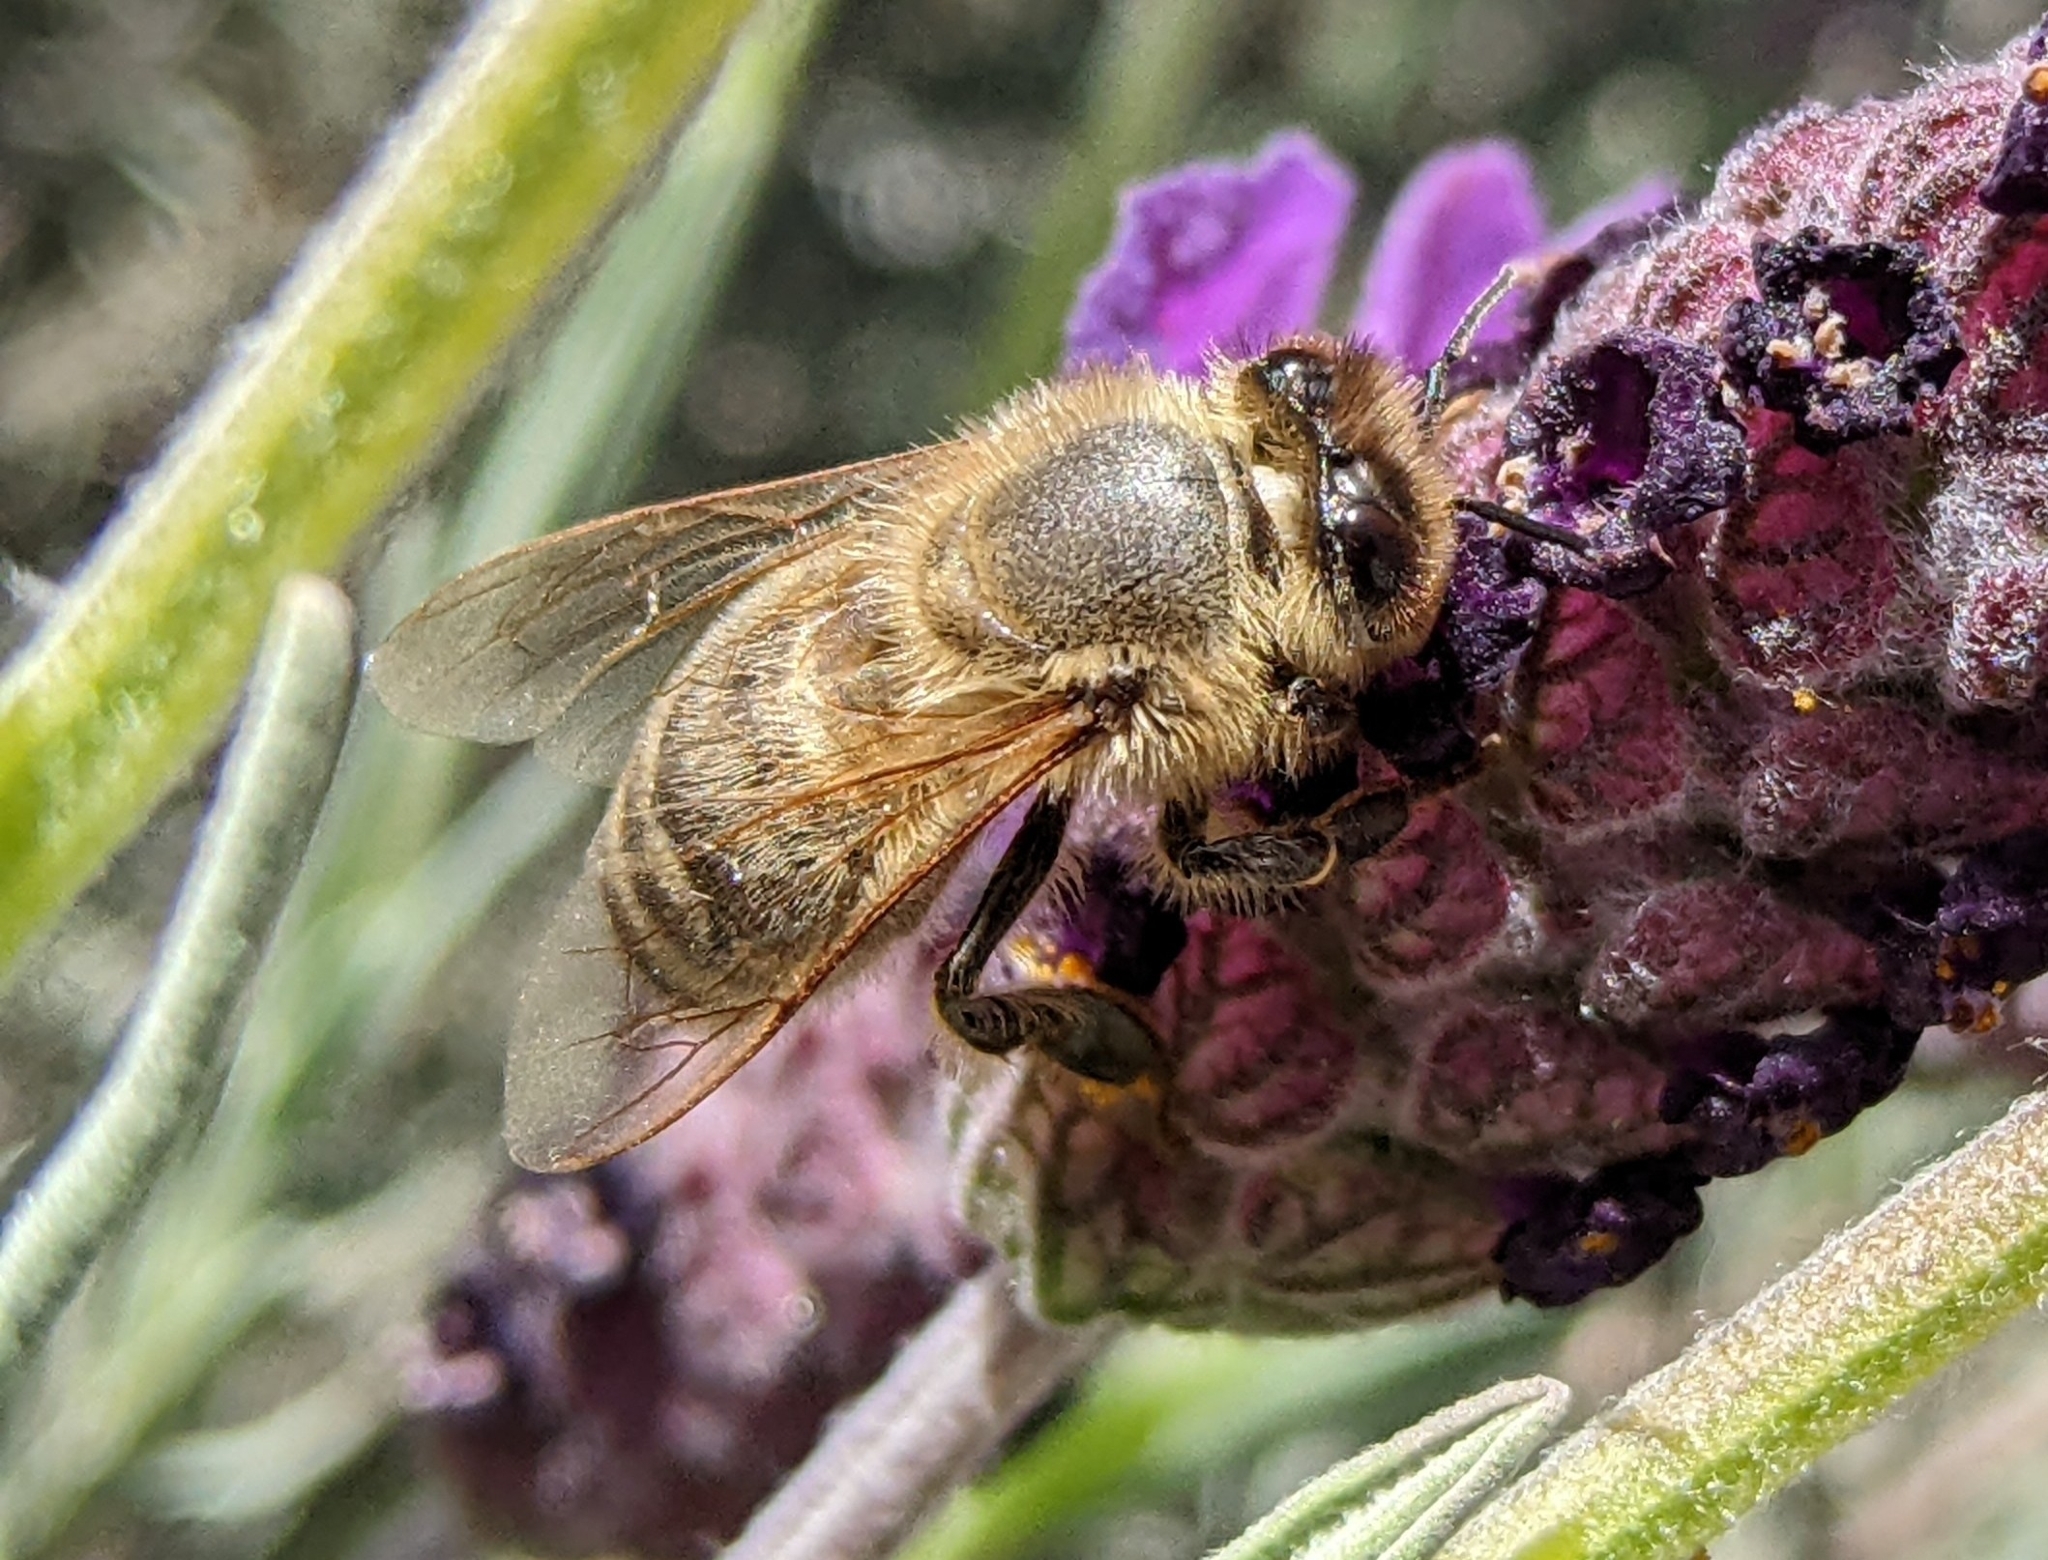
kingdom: Animalia
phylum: Arthropoda
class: Insecta
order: Hymenoptera
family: Apidae
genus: Apis
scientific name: Apis mellifera
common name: Honey bee
